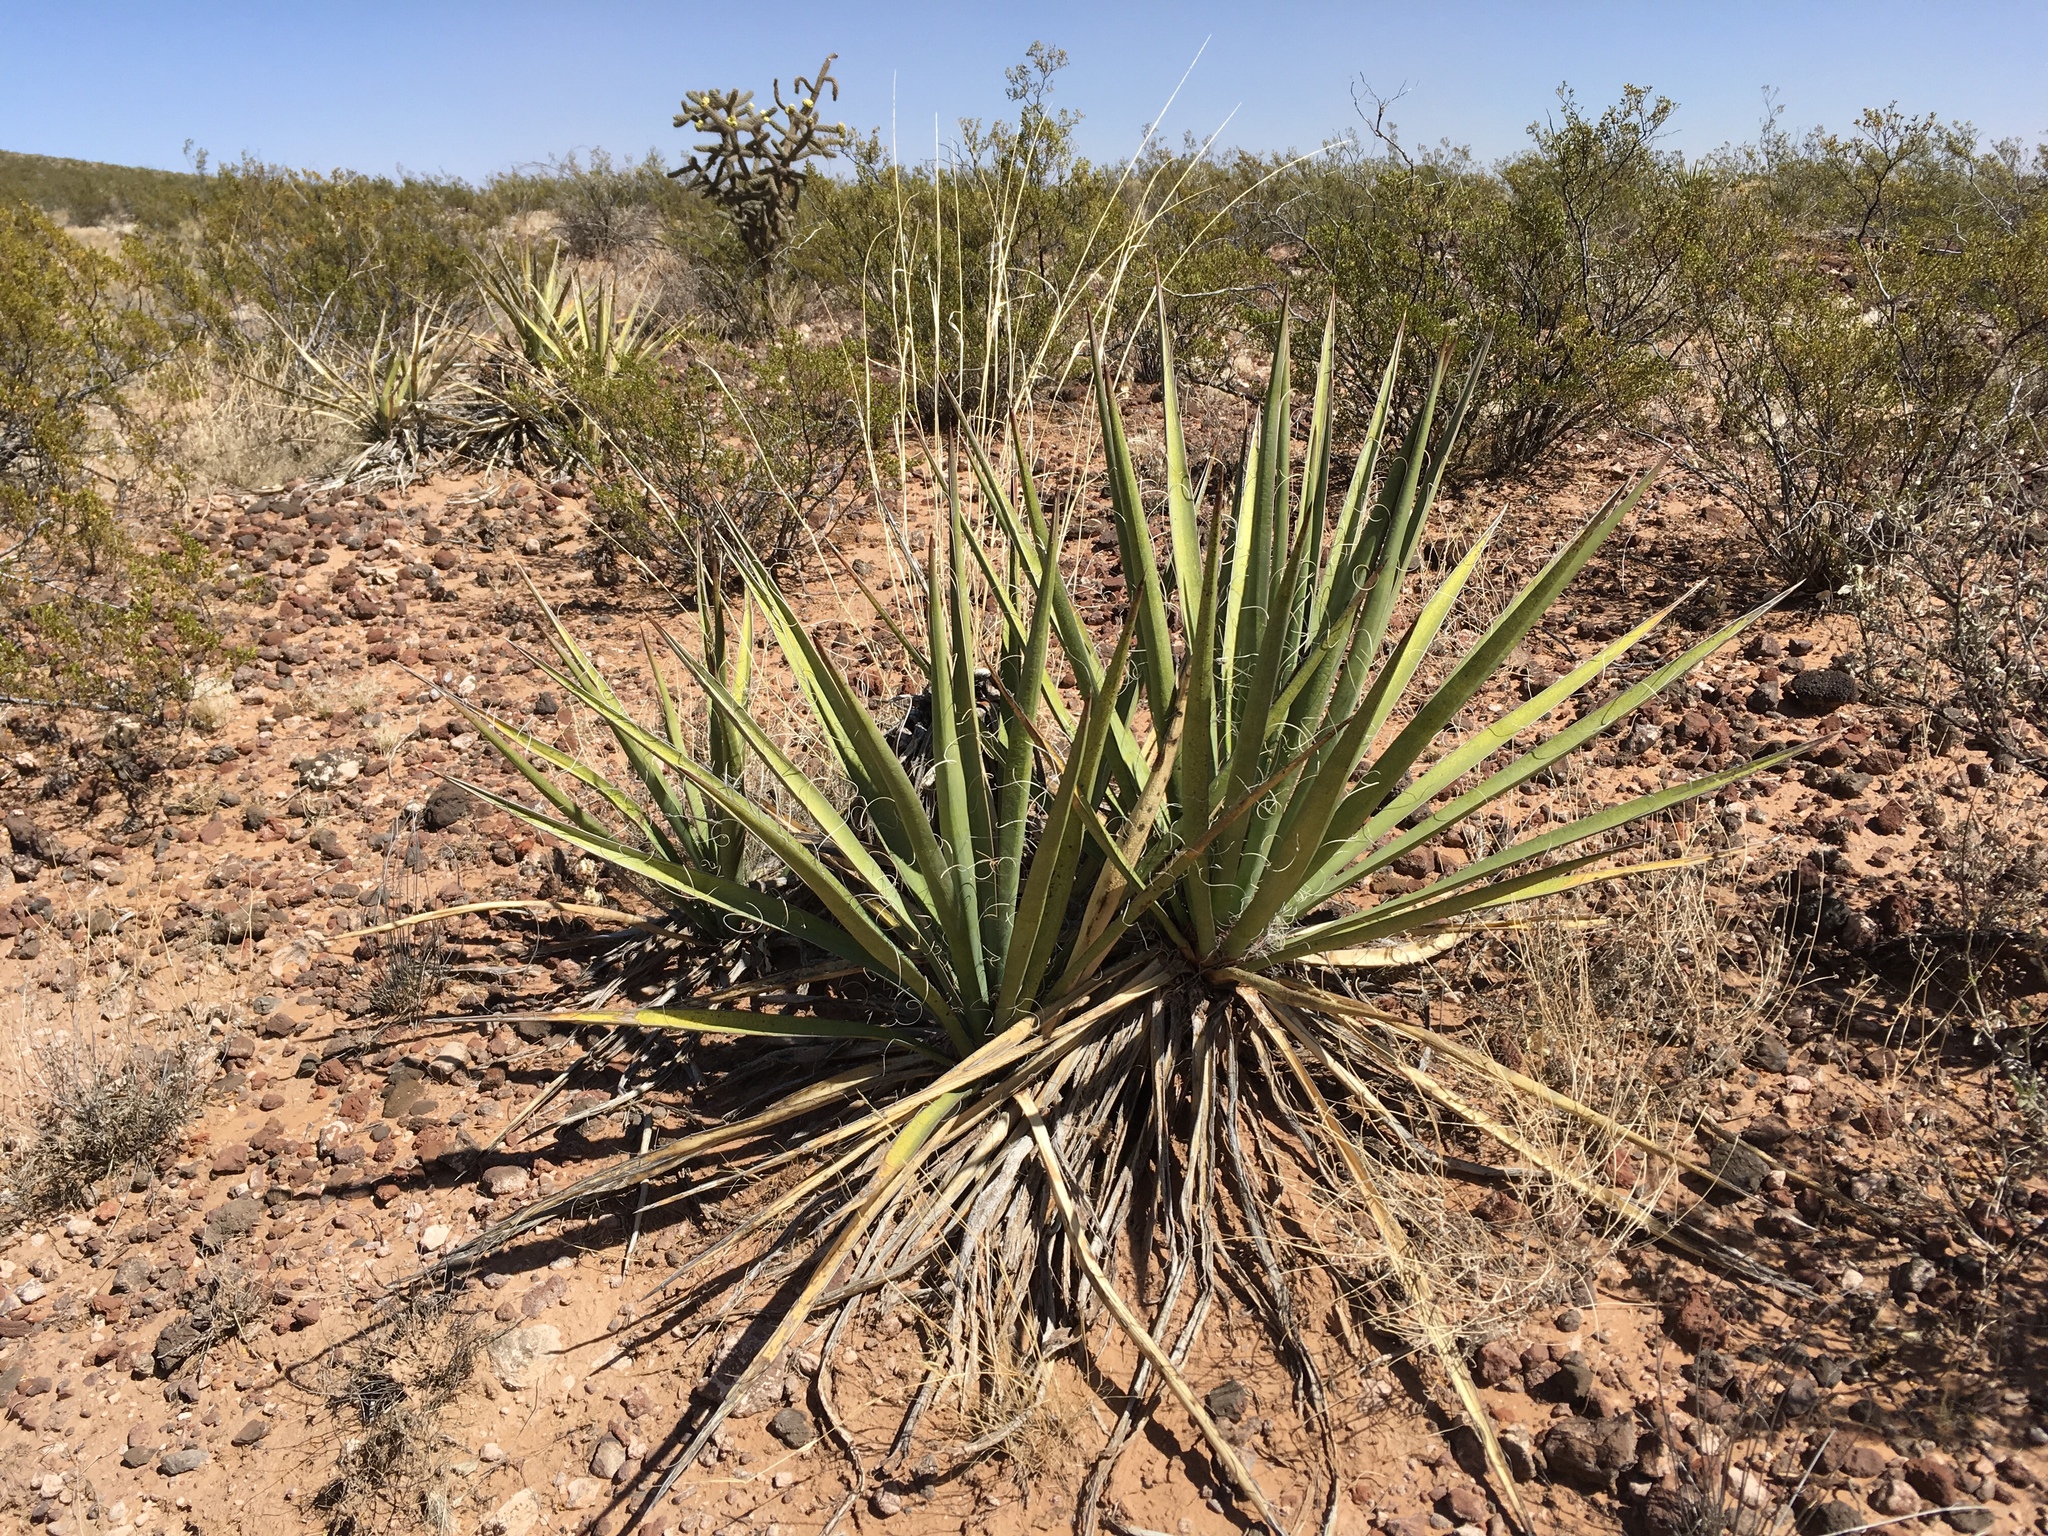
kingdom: Plantae
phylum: Tracheophyta
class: Liliopsida
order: Asparagales
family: Asparagaceae
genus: Yucca
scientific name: Yucca baccata
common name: Banana yucca
